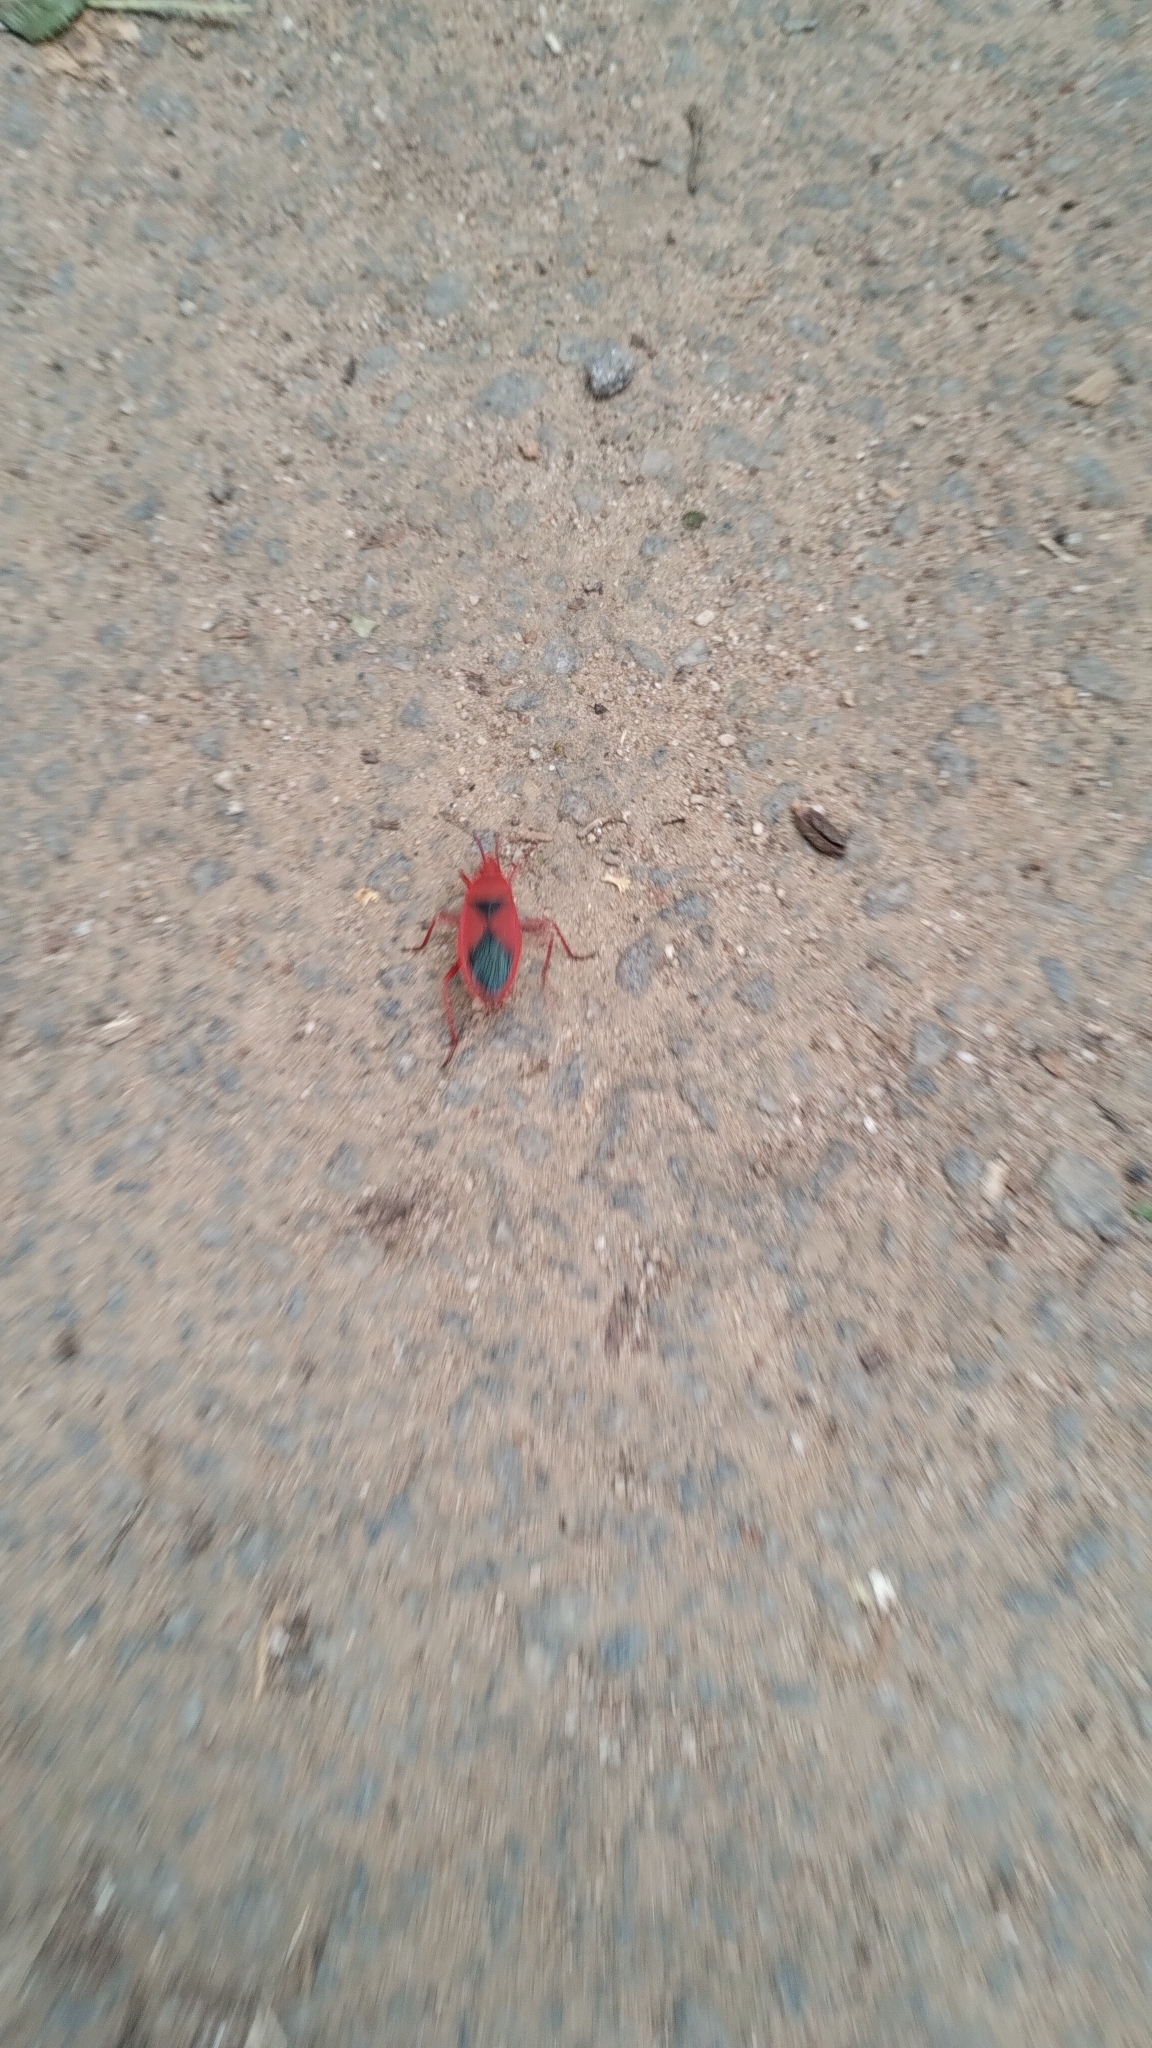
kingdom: Animalia
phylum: Arthropoda
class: Insecta
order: Hemiptera
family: Pyrrhocoridae
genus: Probergrothius
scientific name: Probergrothius
